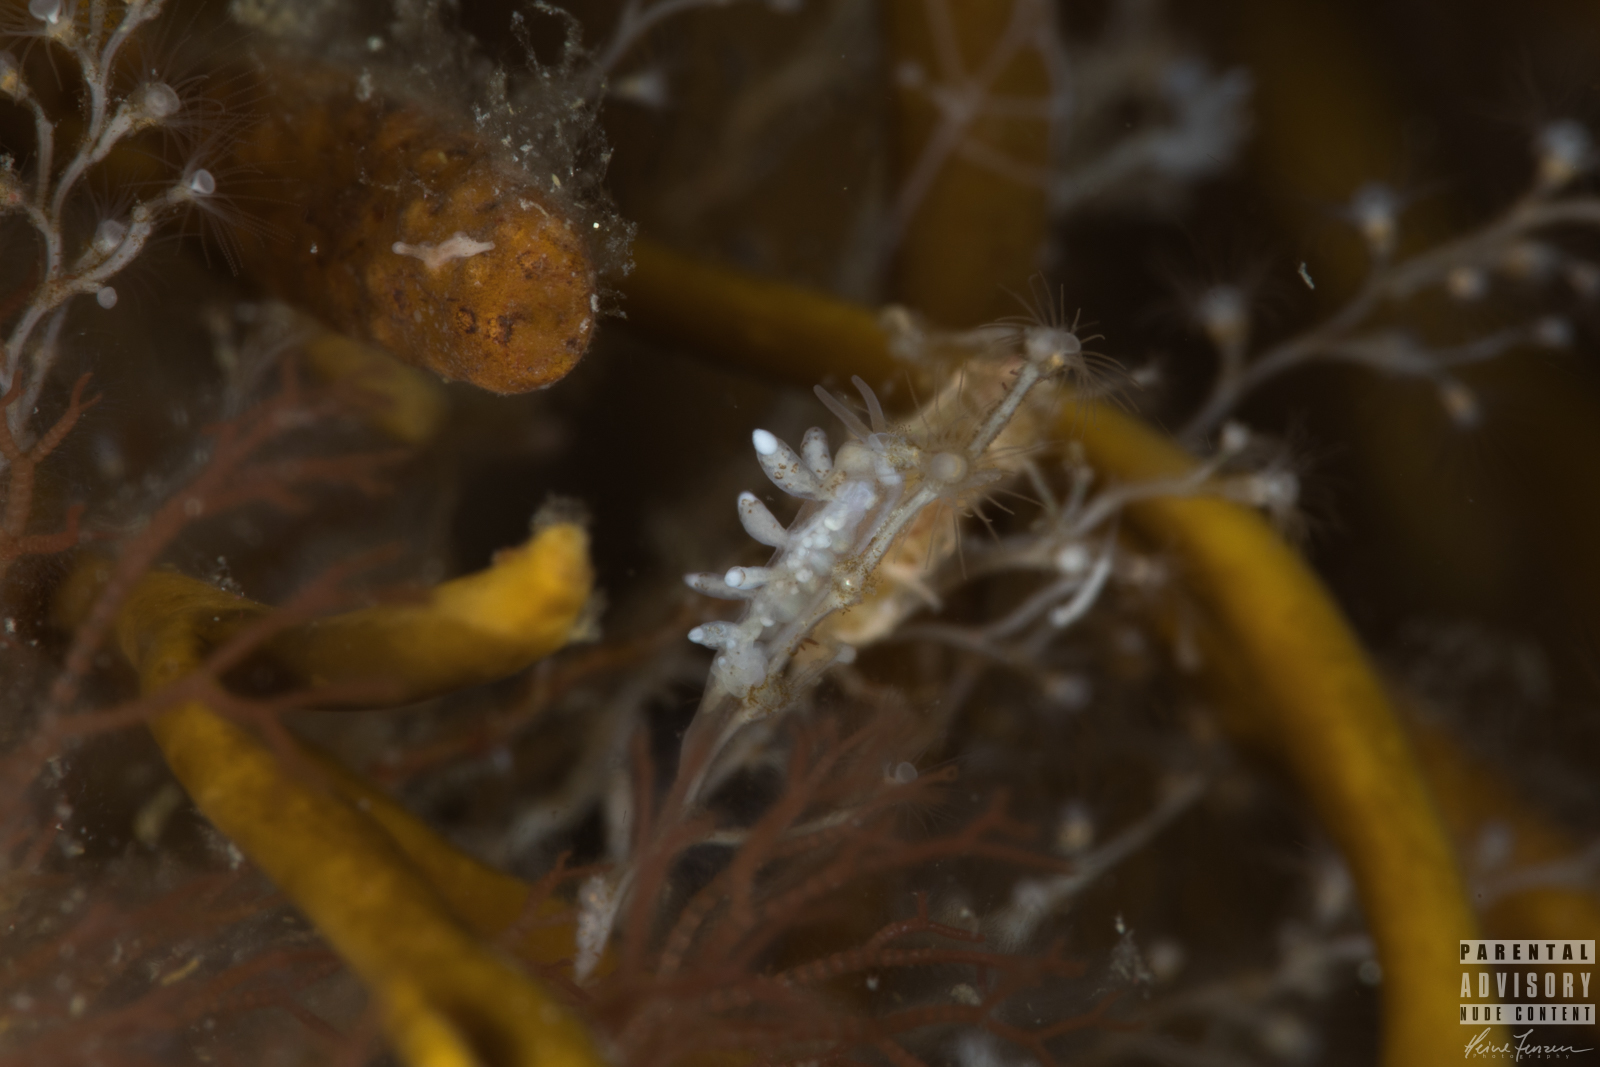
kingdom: Animalia
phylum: Mollusca
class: Gastropoda
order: Nudibranchia
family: Tergipedidae
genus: Tergipes
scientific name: Tergipes tergipes
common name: Johnston's balloon eolis
